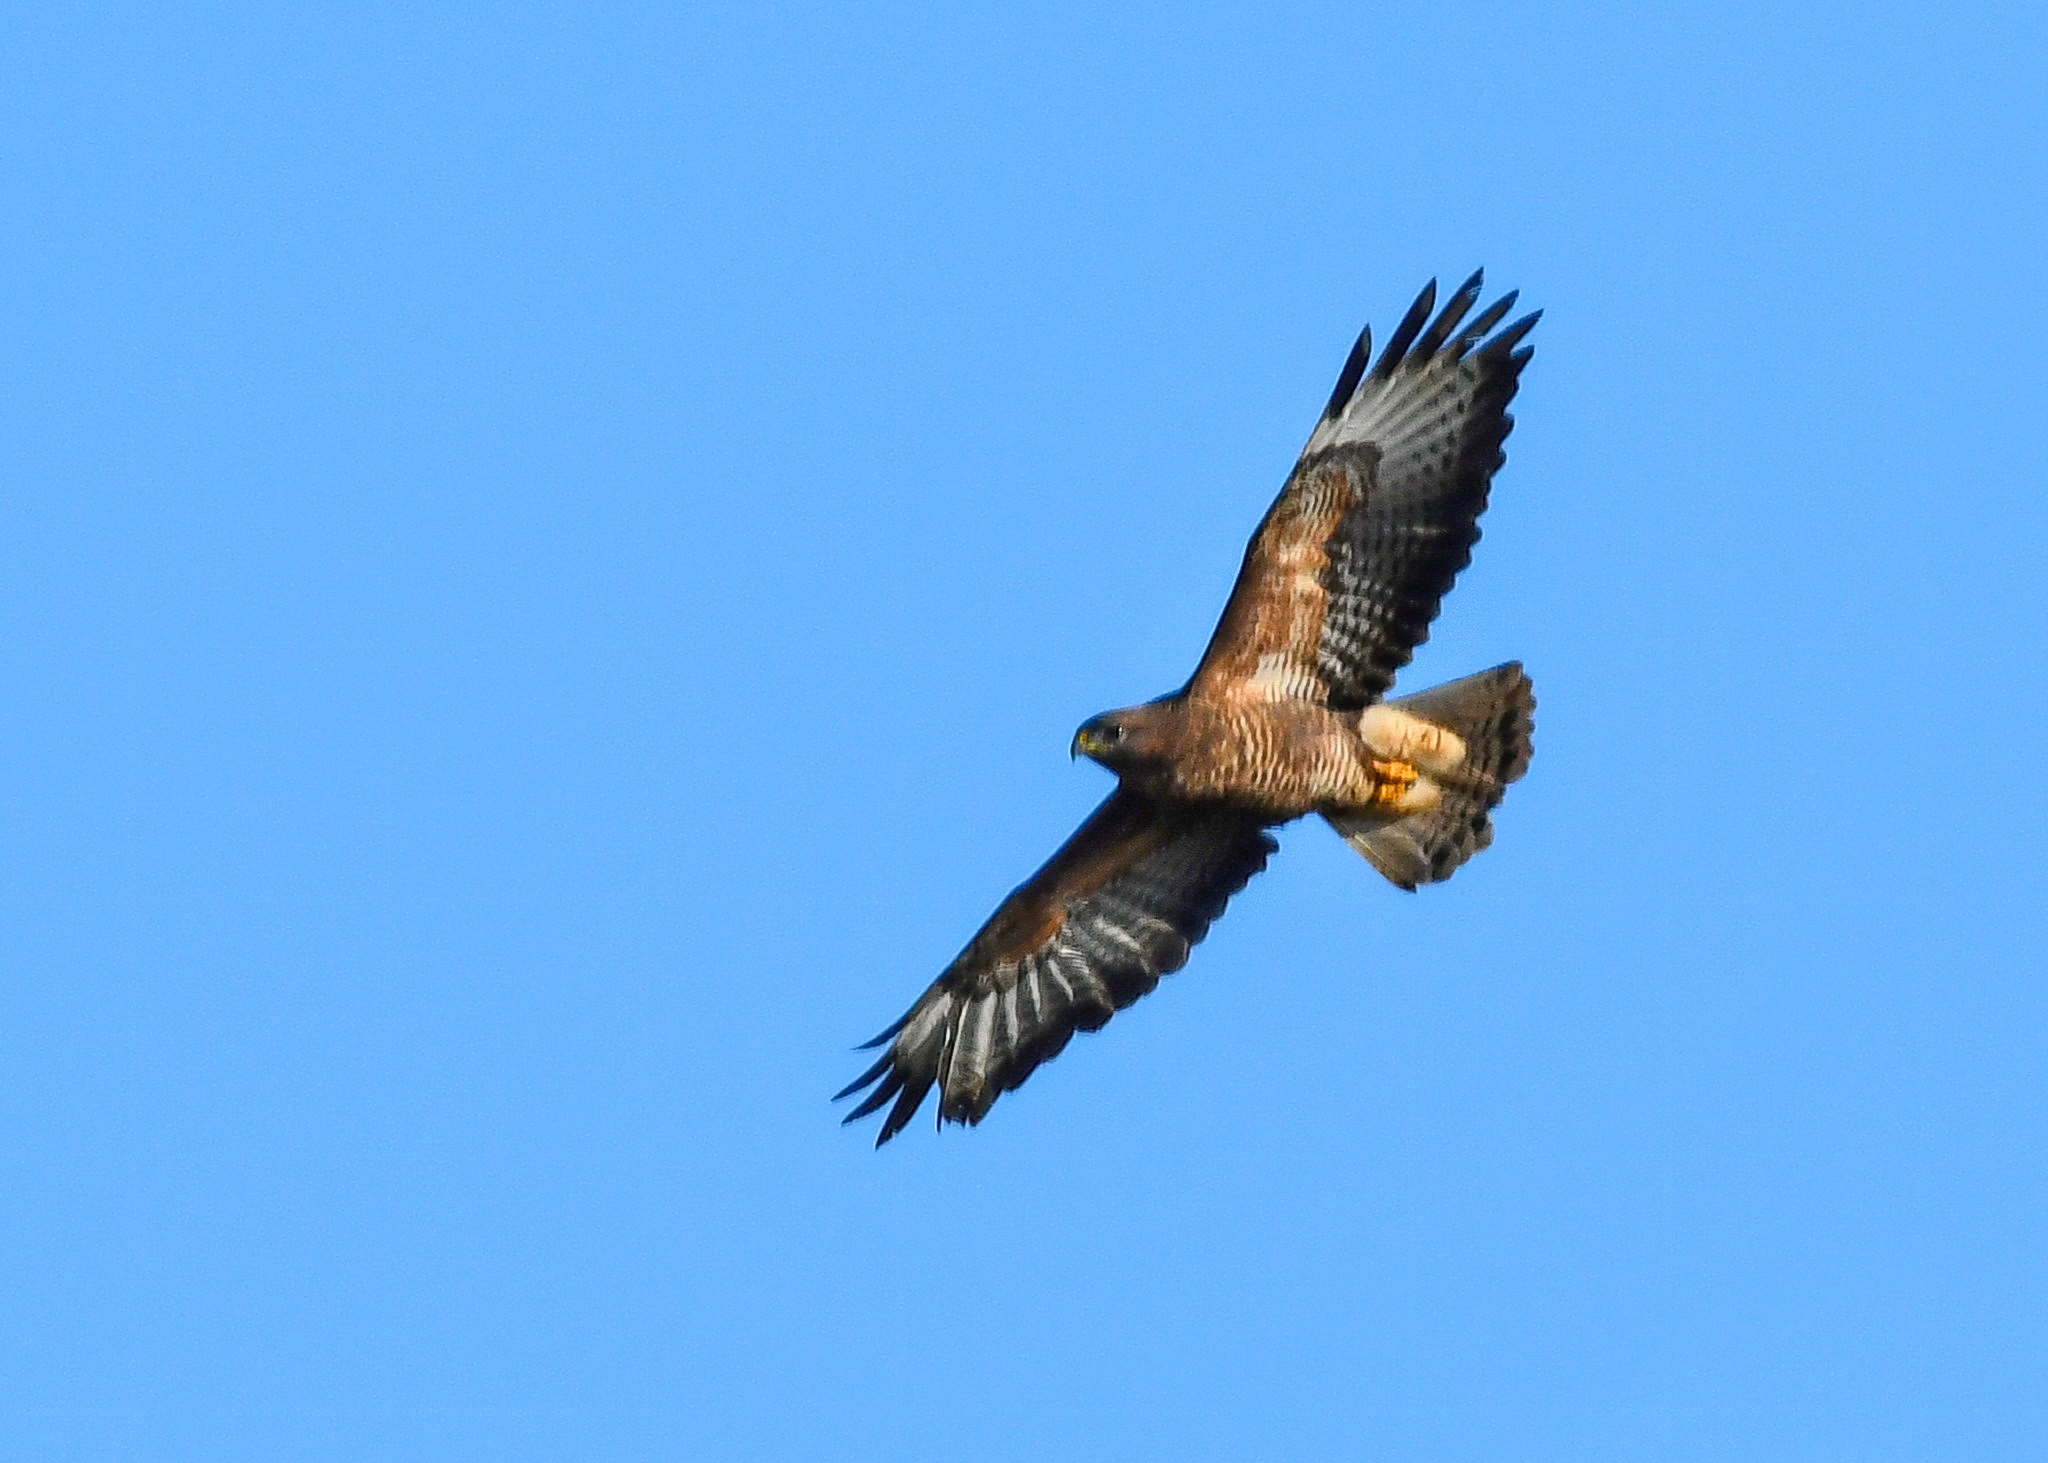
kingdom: Animalia
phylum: Chordata
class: Aves
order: Accipitriformes
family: Accipitridae
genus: Buteo
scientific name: Buteo buteo
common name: Common buzzard
